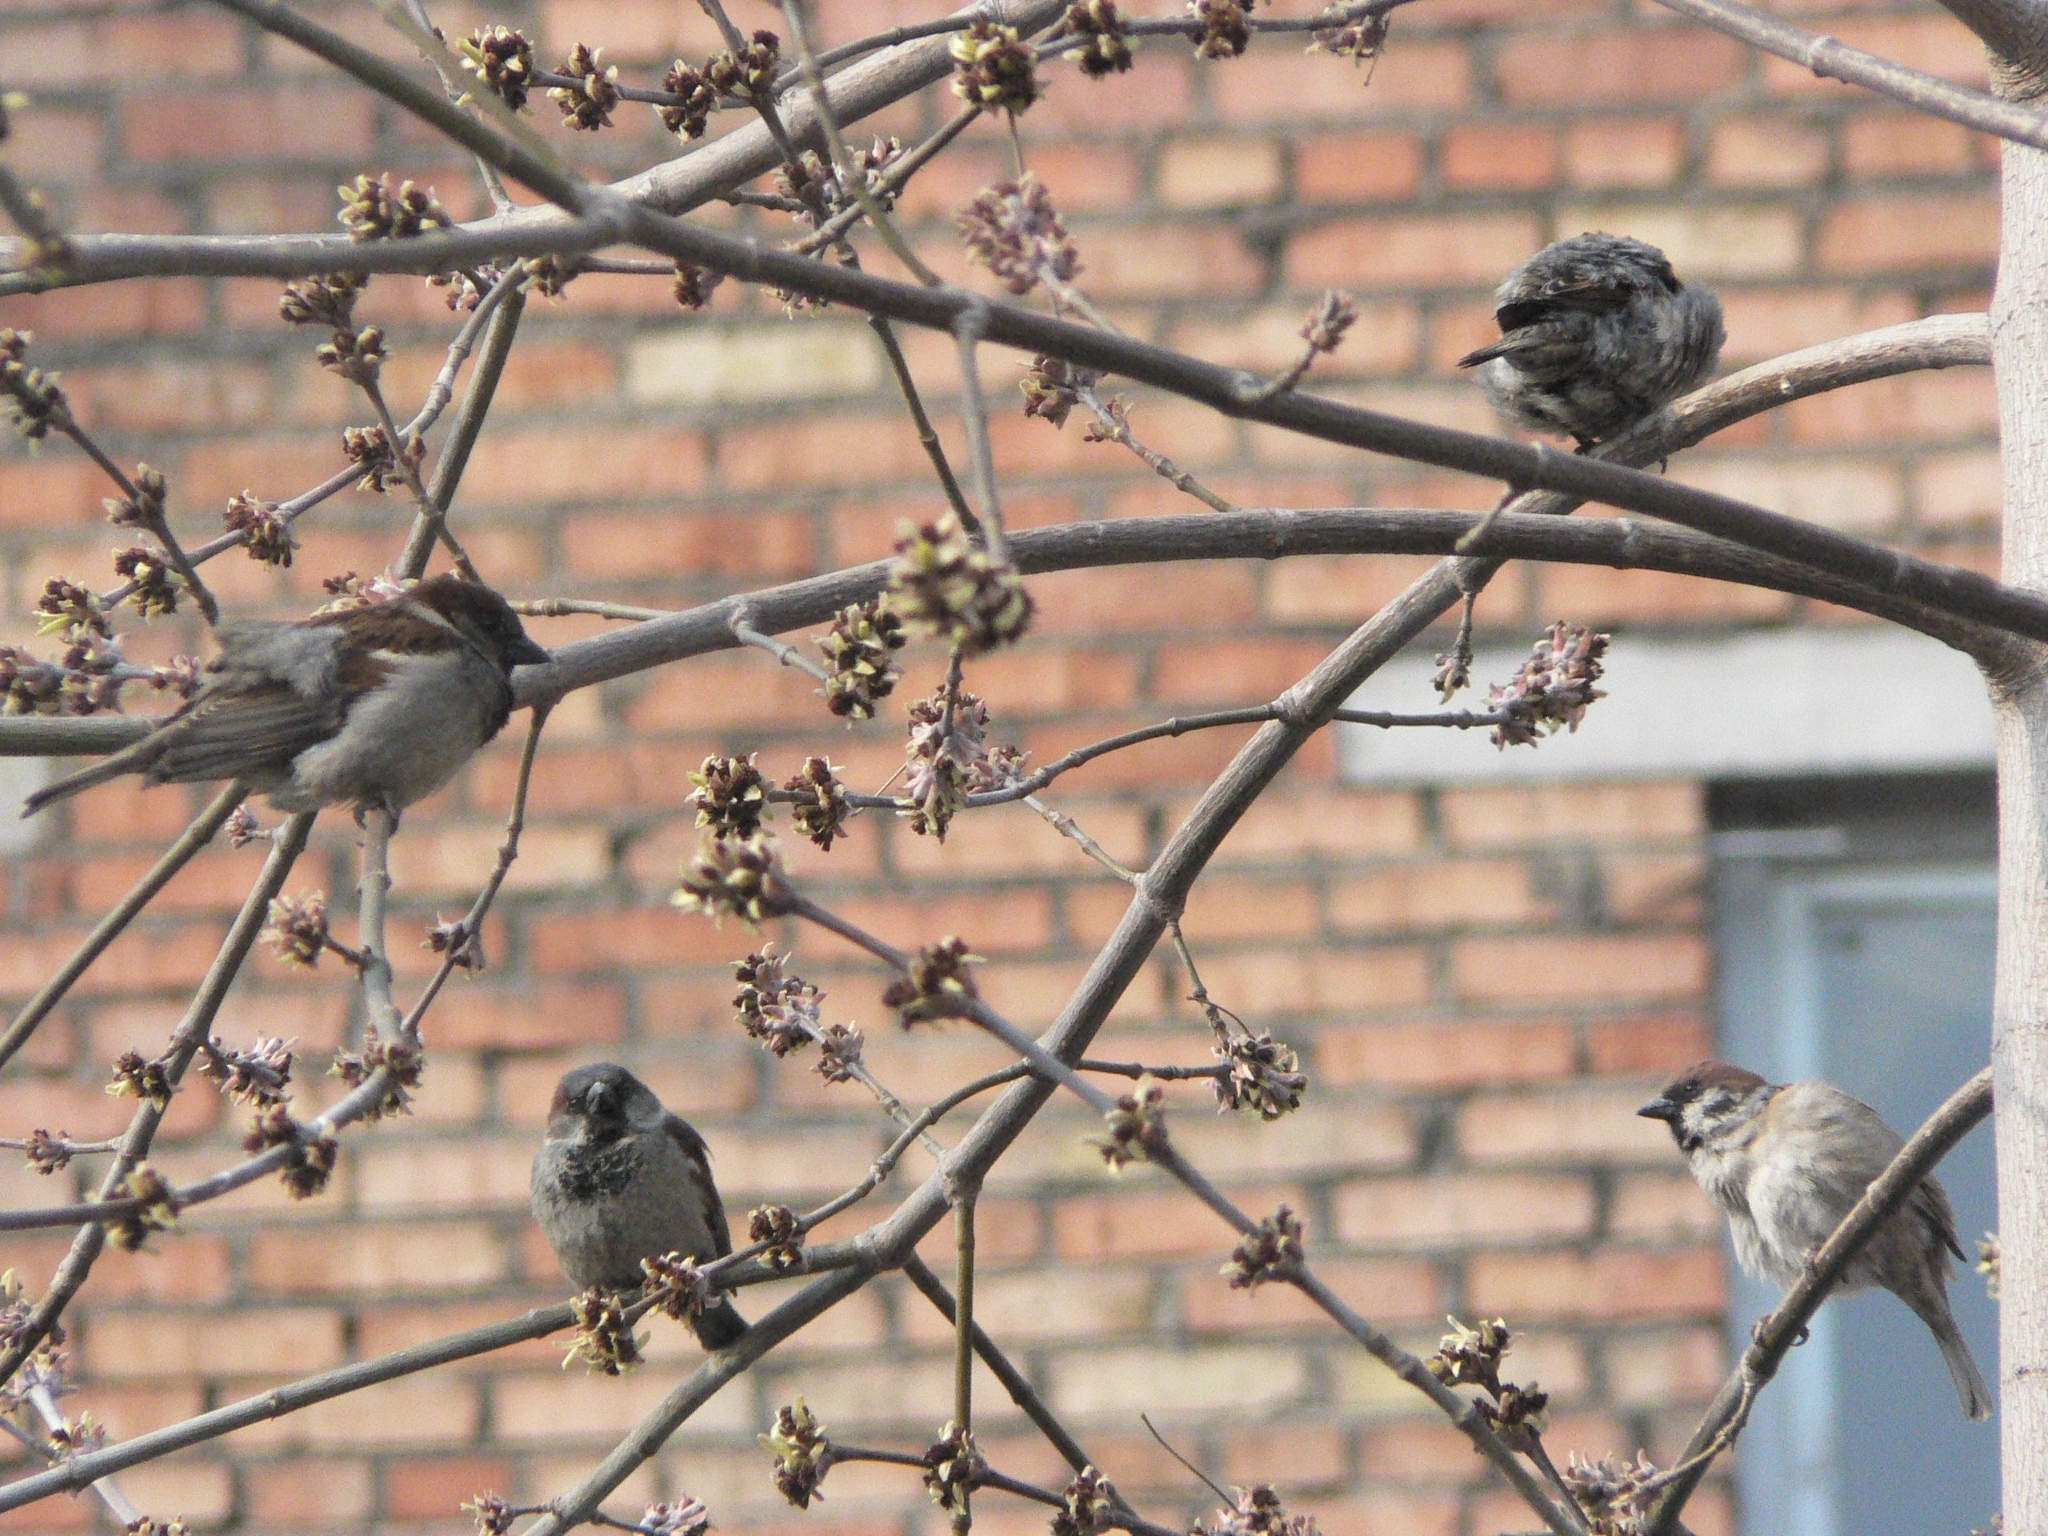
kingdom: Animalia
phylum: Chordata
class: Aves
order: Passeriformes
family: Passeridae
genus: Passer
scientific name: Passer domesticus
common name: House sparrow
